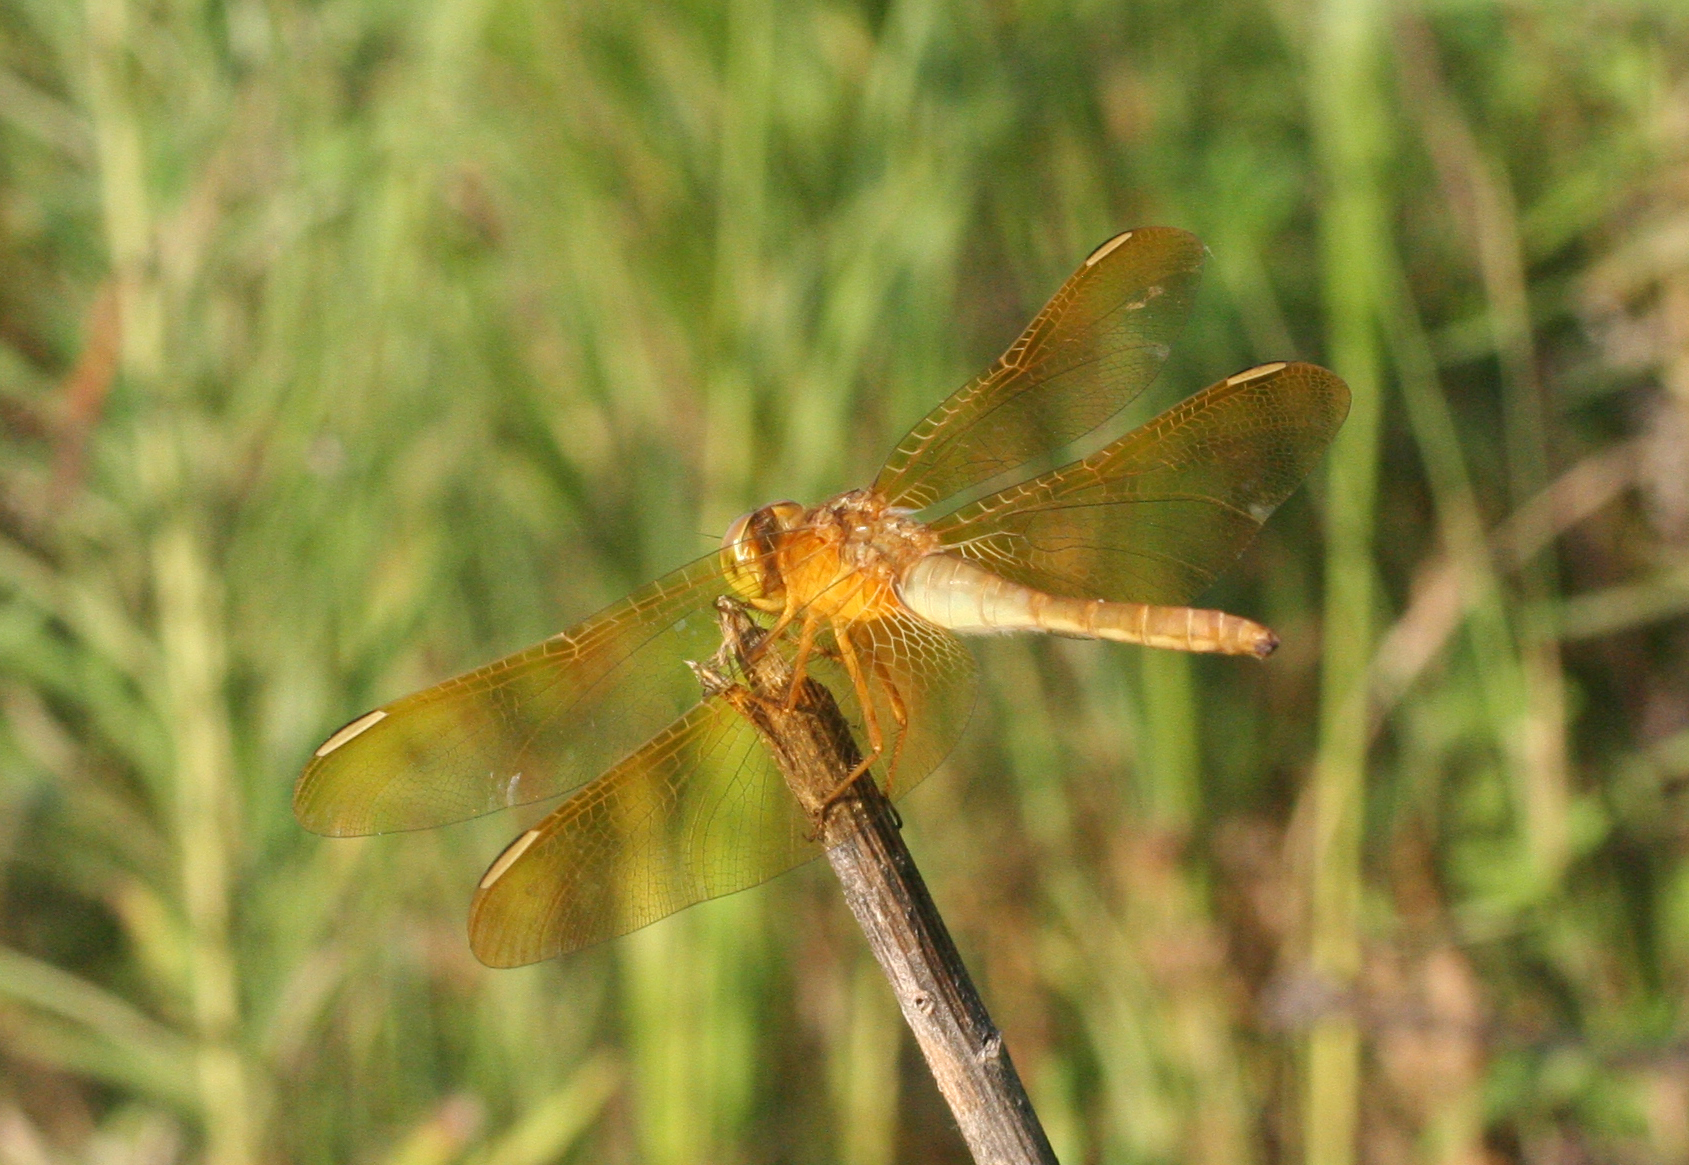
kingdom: Animalia
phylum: Arthropoda
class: Insecta
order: Odonata
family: Libellulidae
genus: Sympetrum
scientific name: Sympetrum uniforme
